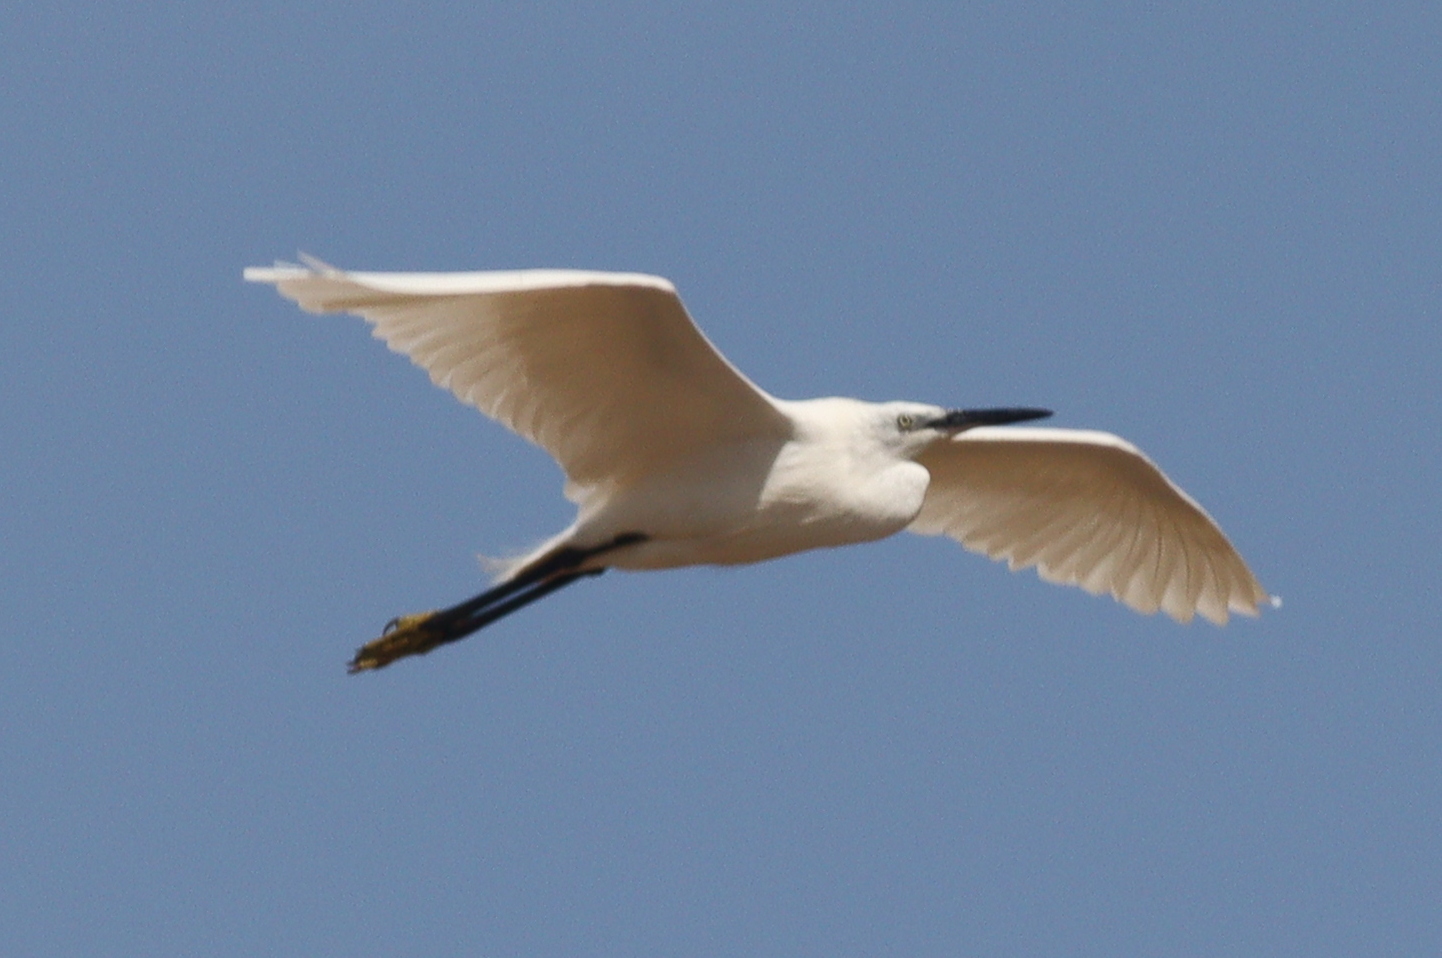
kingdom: Animalia
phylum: Chordata
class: Aves
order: Pelecaniformes
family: Ardeidae
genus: Egretta
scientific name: Egretta garzetta
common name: Little egret
